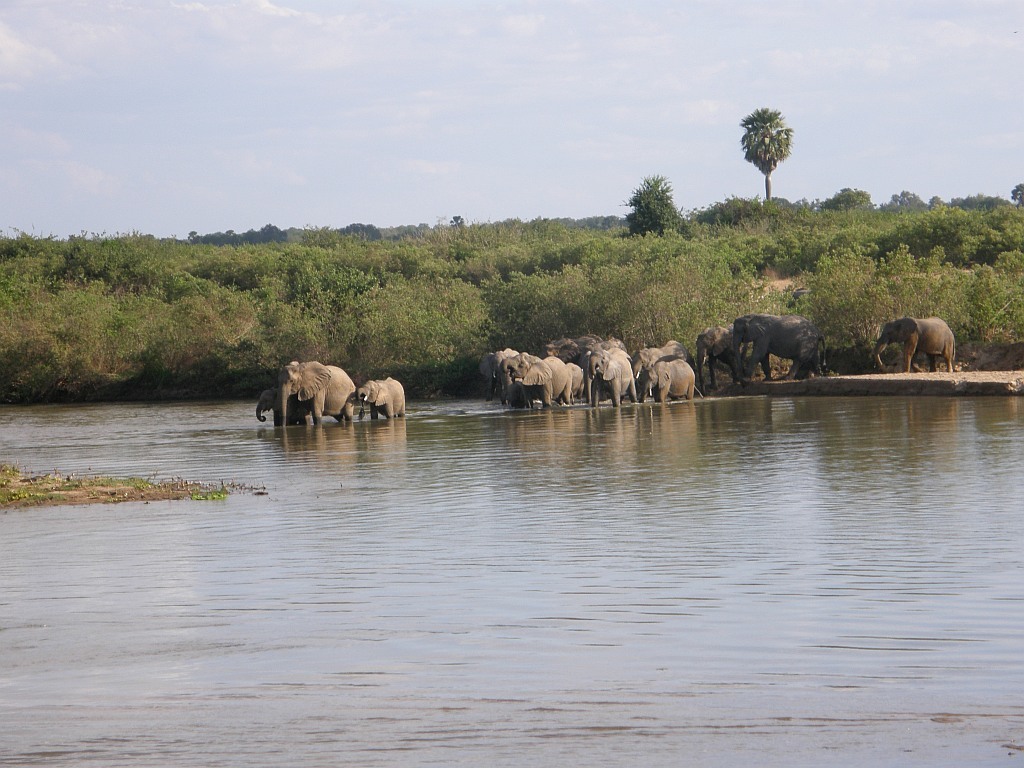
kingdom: Animalia
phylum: Chordata
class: Mammalia
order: Proboscidea
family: Elephantidae
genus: Loxodonta
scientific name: Loxodonta africana
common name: African elephant
